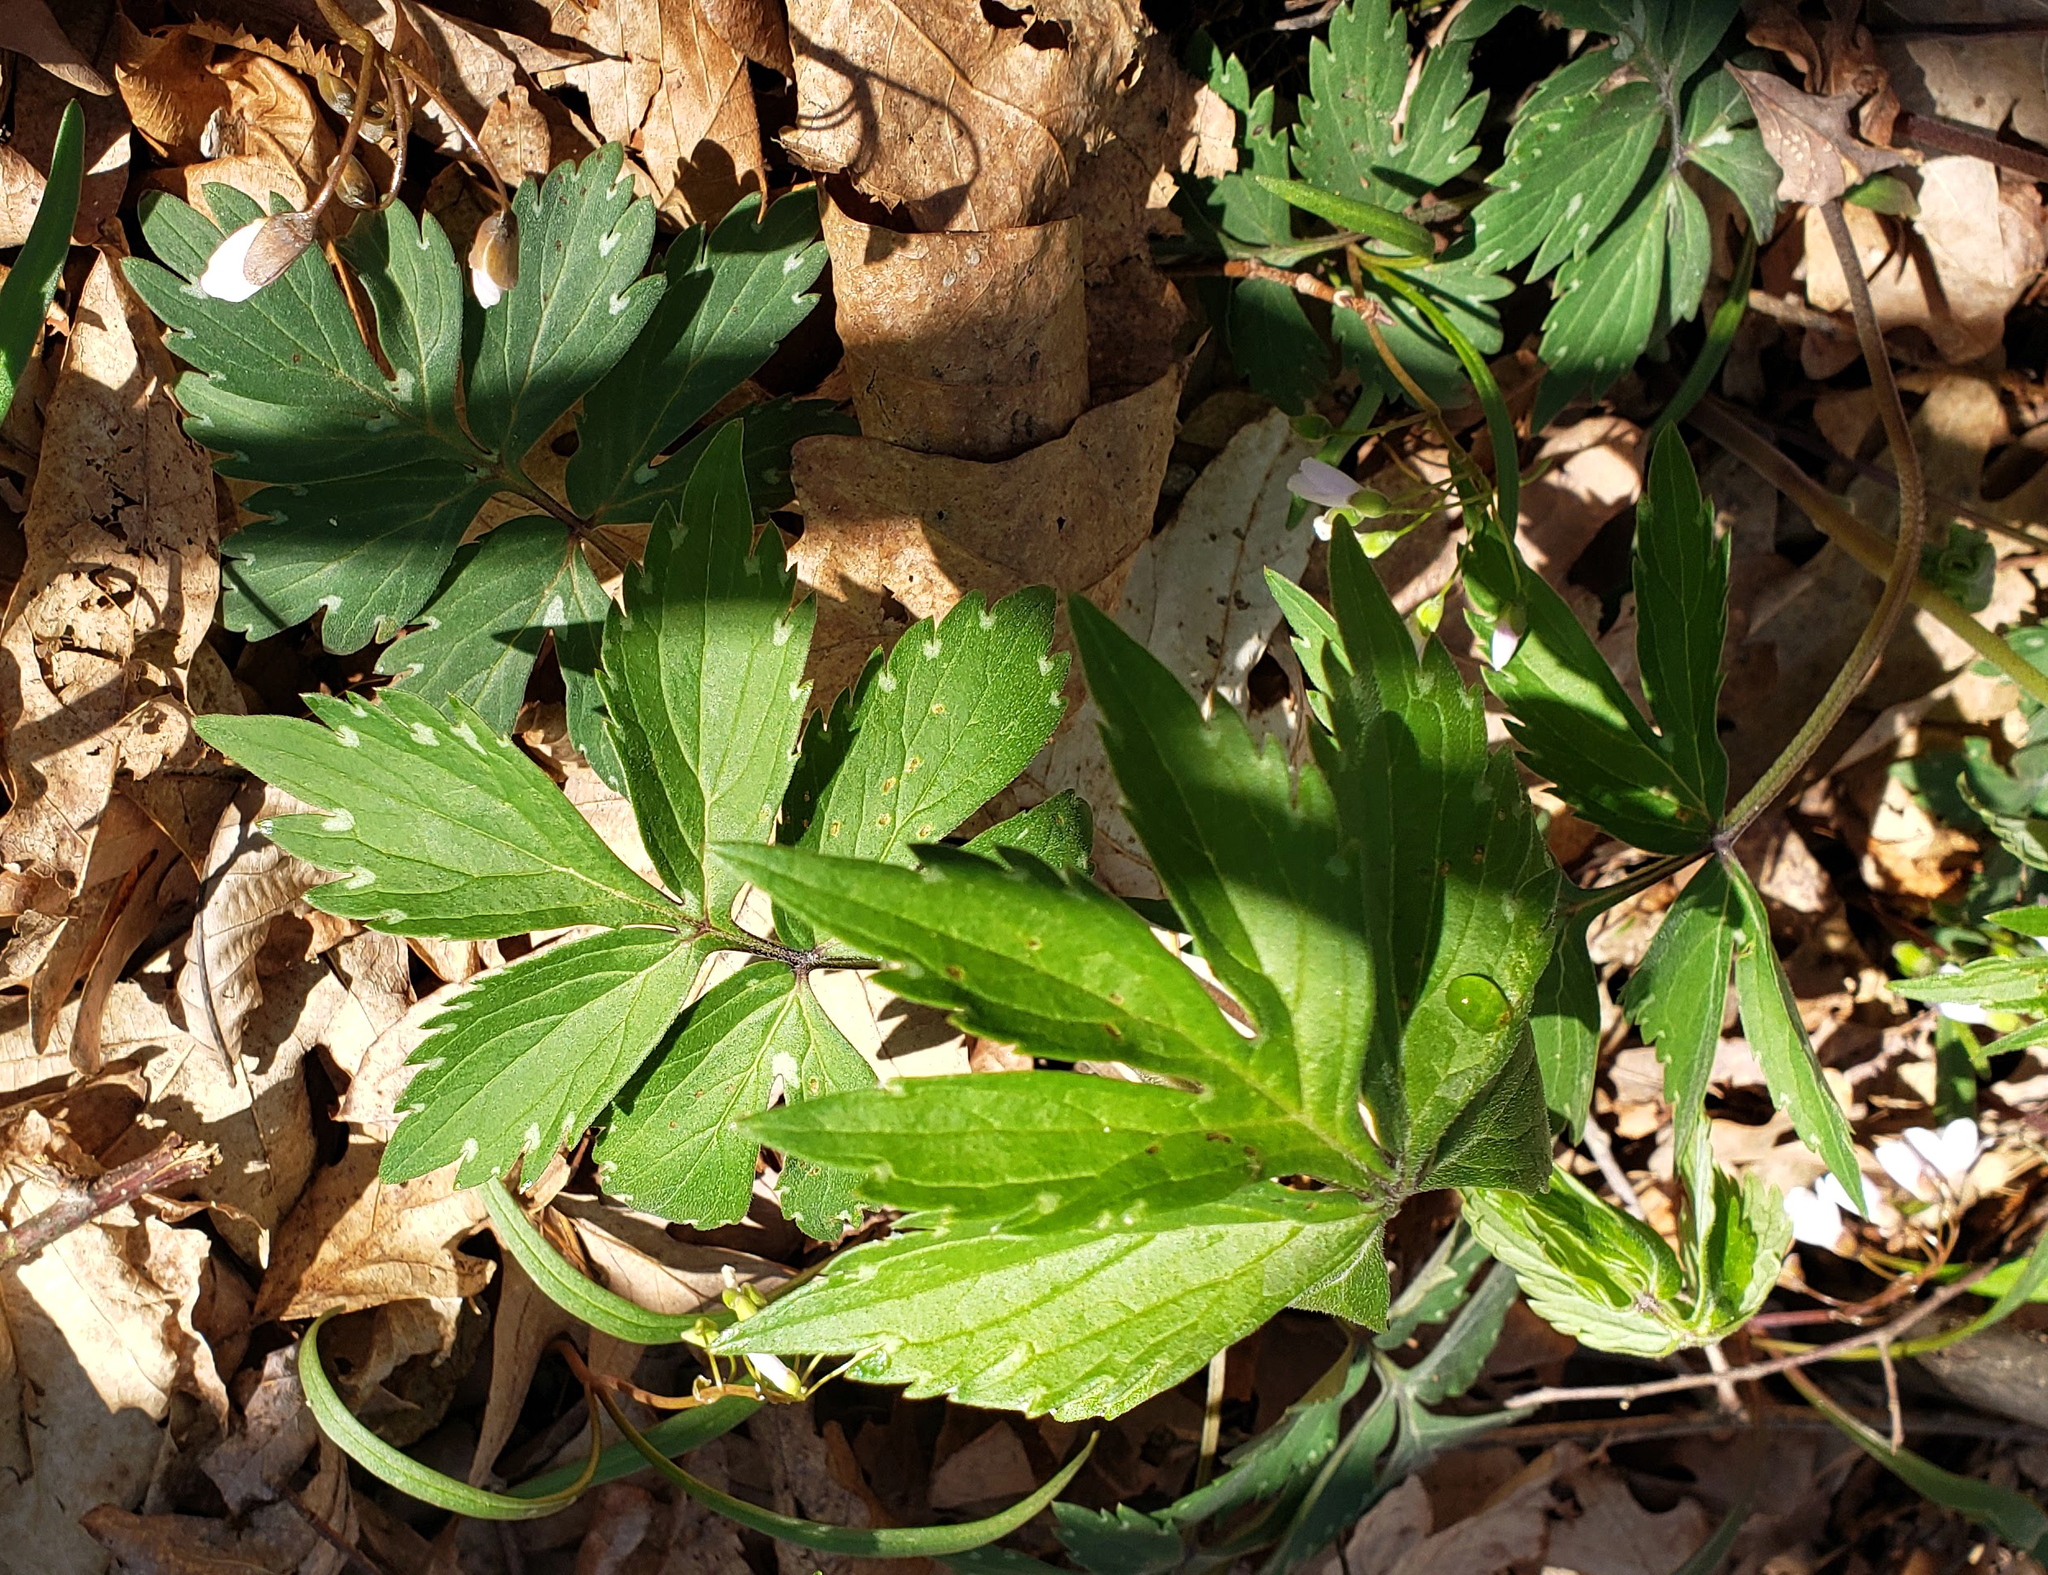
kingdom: Plantae
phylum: Tracheophyta
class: Magnoliopsida
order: Boraginales
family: Hydrophyllaceae
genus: Hydrophyllum
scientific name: Hydrophyllum virginianum
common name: Virginia waterleaf
